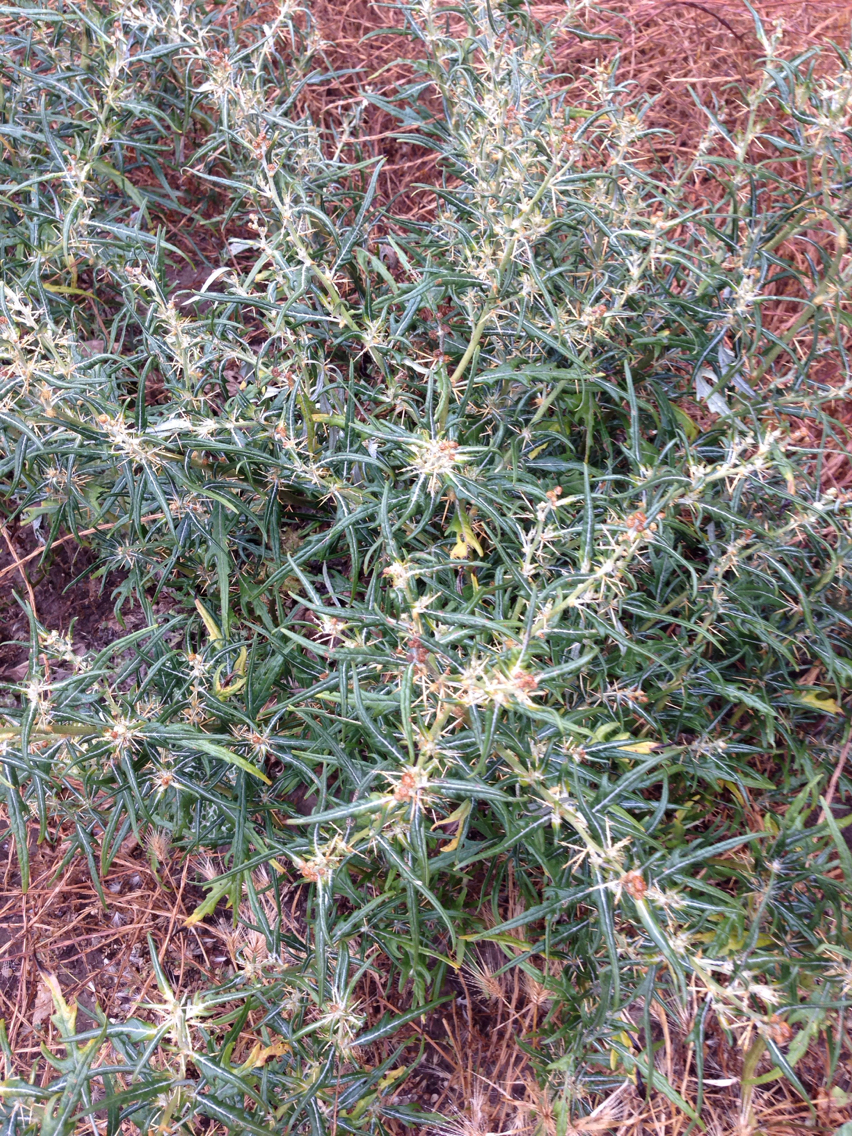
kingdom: Plantae
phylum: Tracheophyta
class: Magnoliopsida
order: Asterales
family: Asteraceae
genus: Xanthium
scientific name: Xanthium spinosum
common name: Spiny cocklebur
